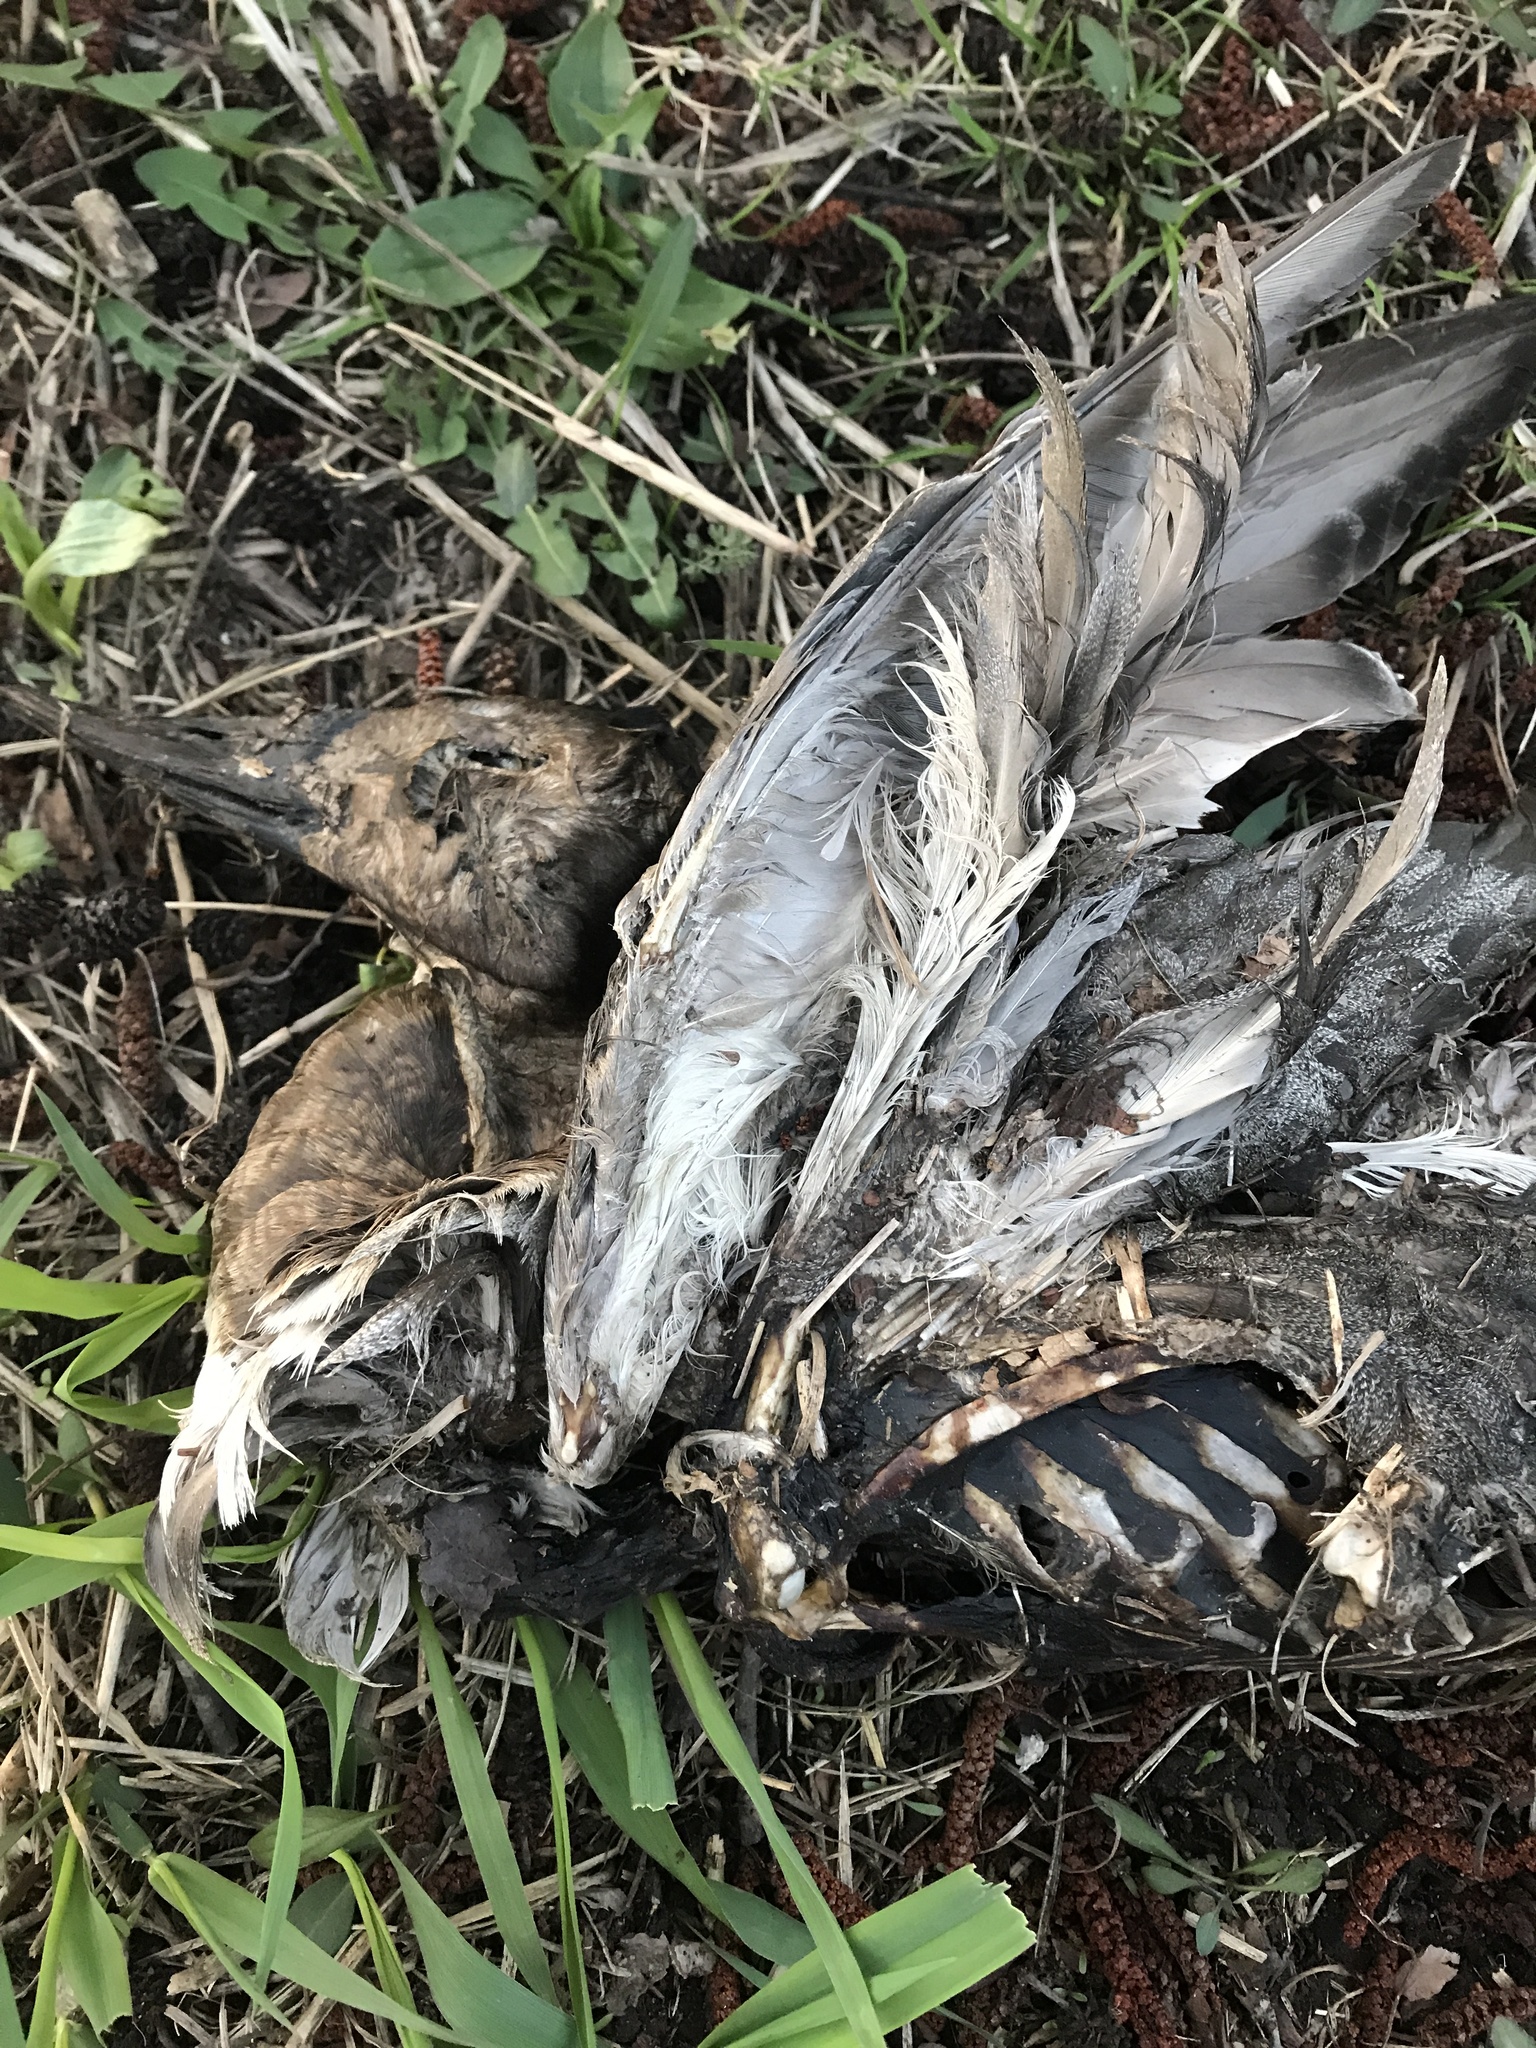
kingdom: Animalia
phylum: Chordata
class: Aves
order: Anseriformes
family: Anatidae
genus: Anas
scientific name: Anas platyrhynchos
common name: Mallard
